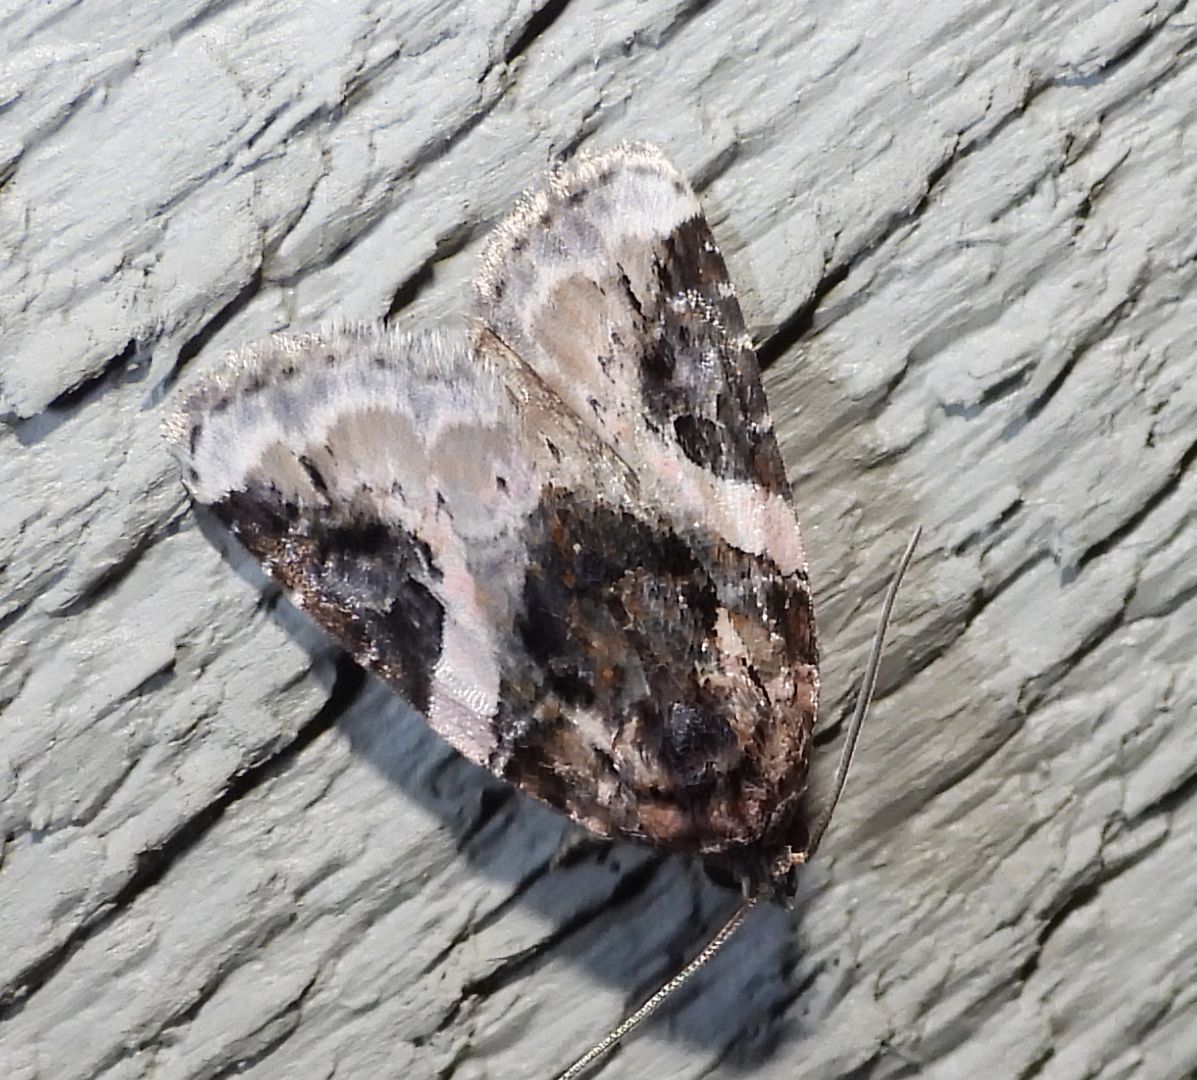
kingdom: Animalia
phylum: Arthropoda
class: Insecta
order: Lepidoptera
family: Noctuidae
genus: Pseudeustrotia
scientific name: Pseudeustrotia carneola
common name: Pink-barred lithacodia moth
